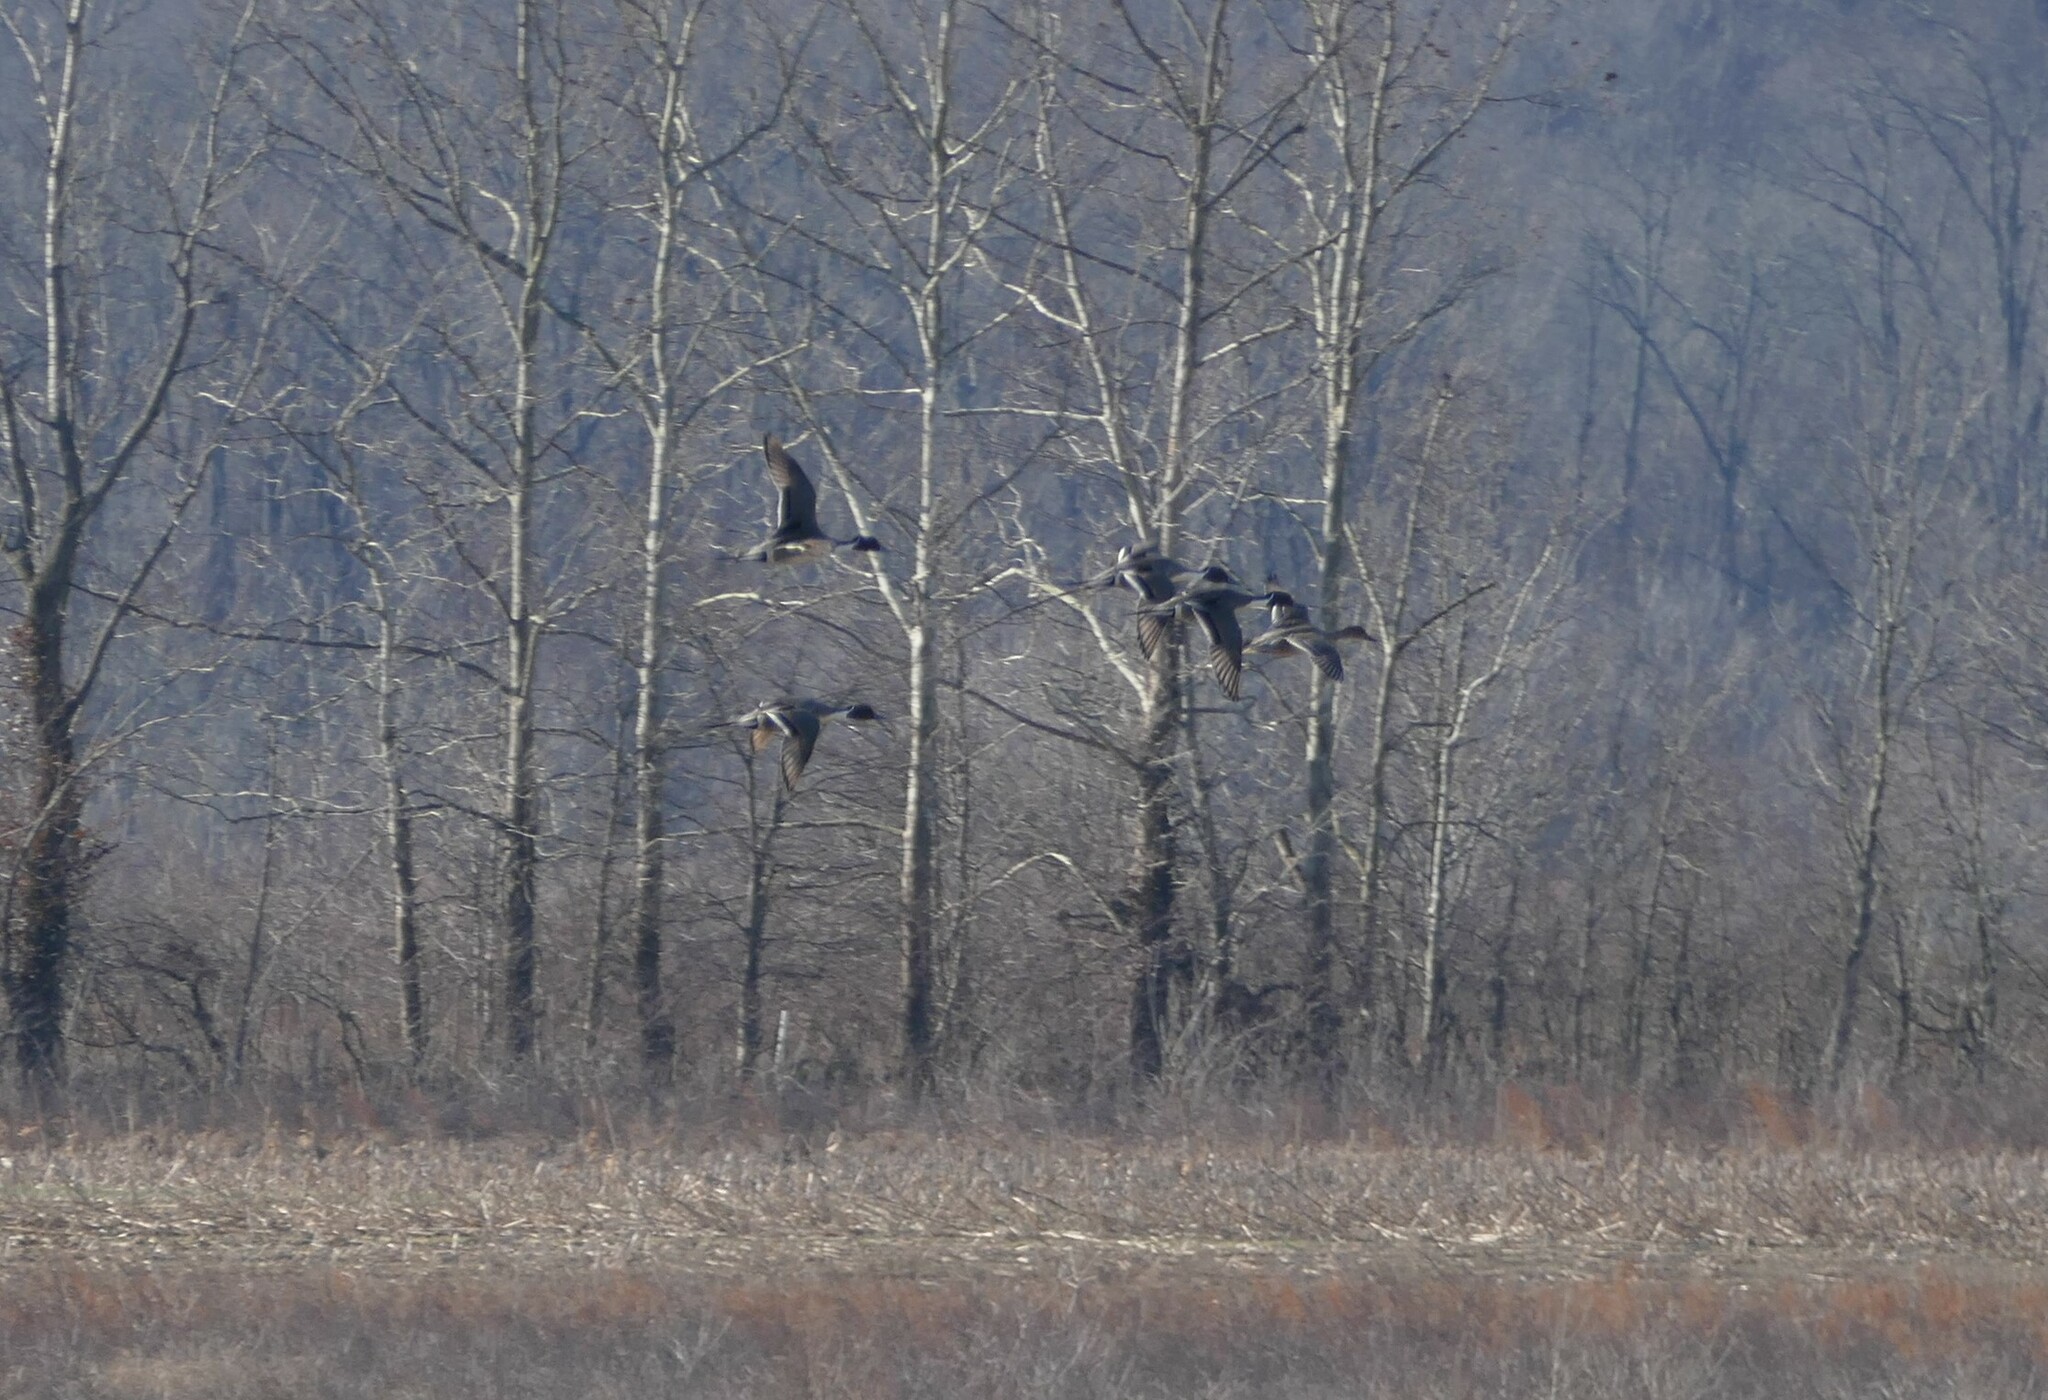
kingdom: Animalia
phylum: Chordata
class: Aves
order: Anseriformes
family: Anatidae
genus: Anas
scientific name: Anas acuta
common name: Northern pintail
